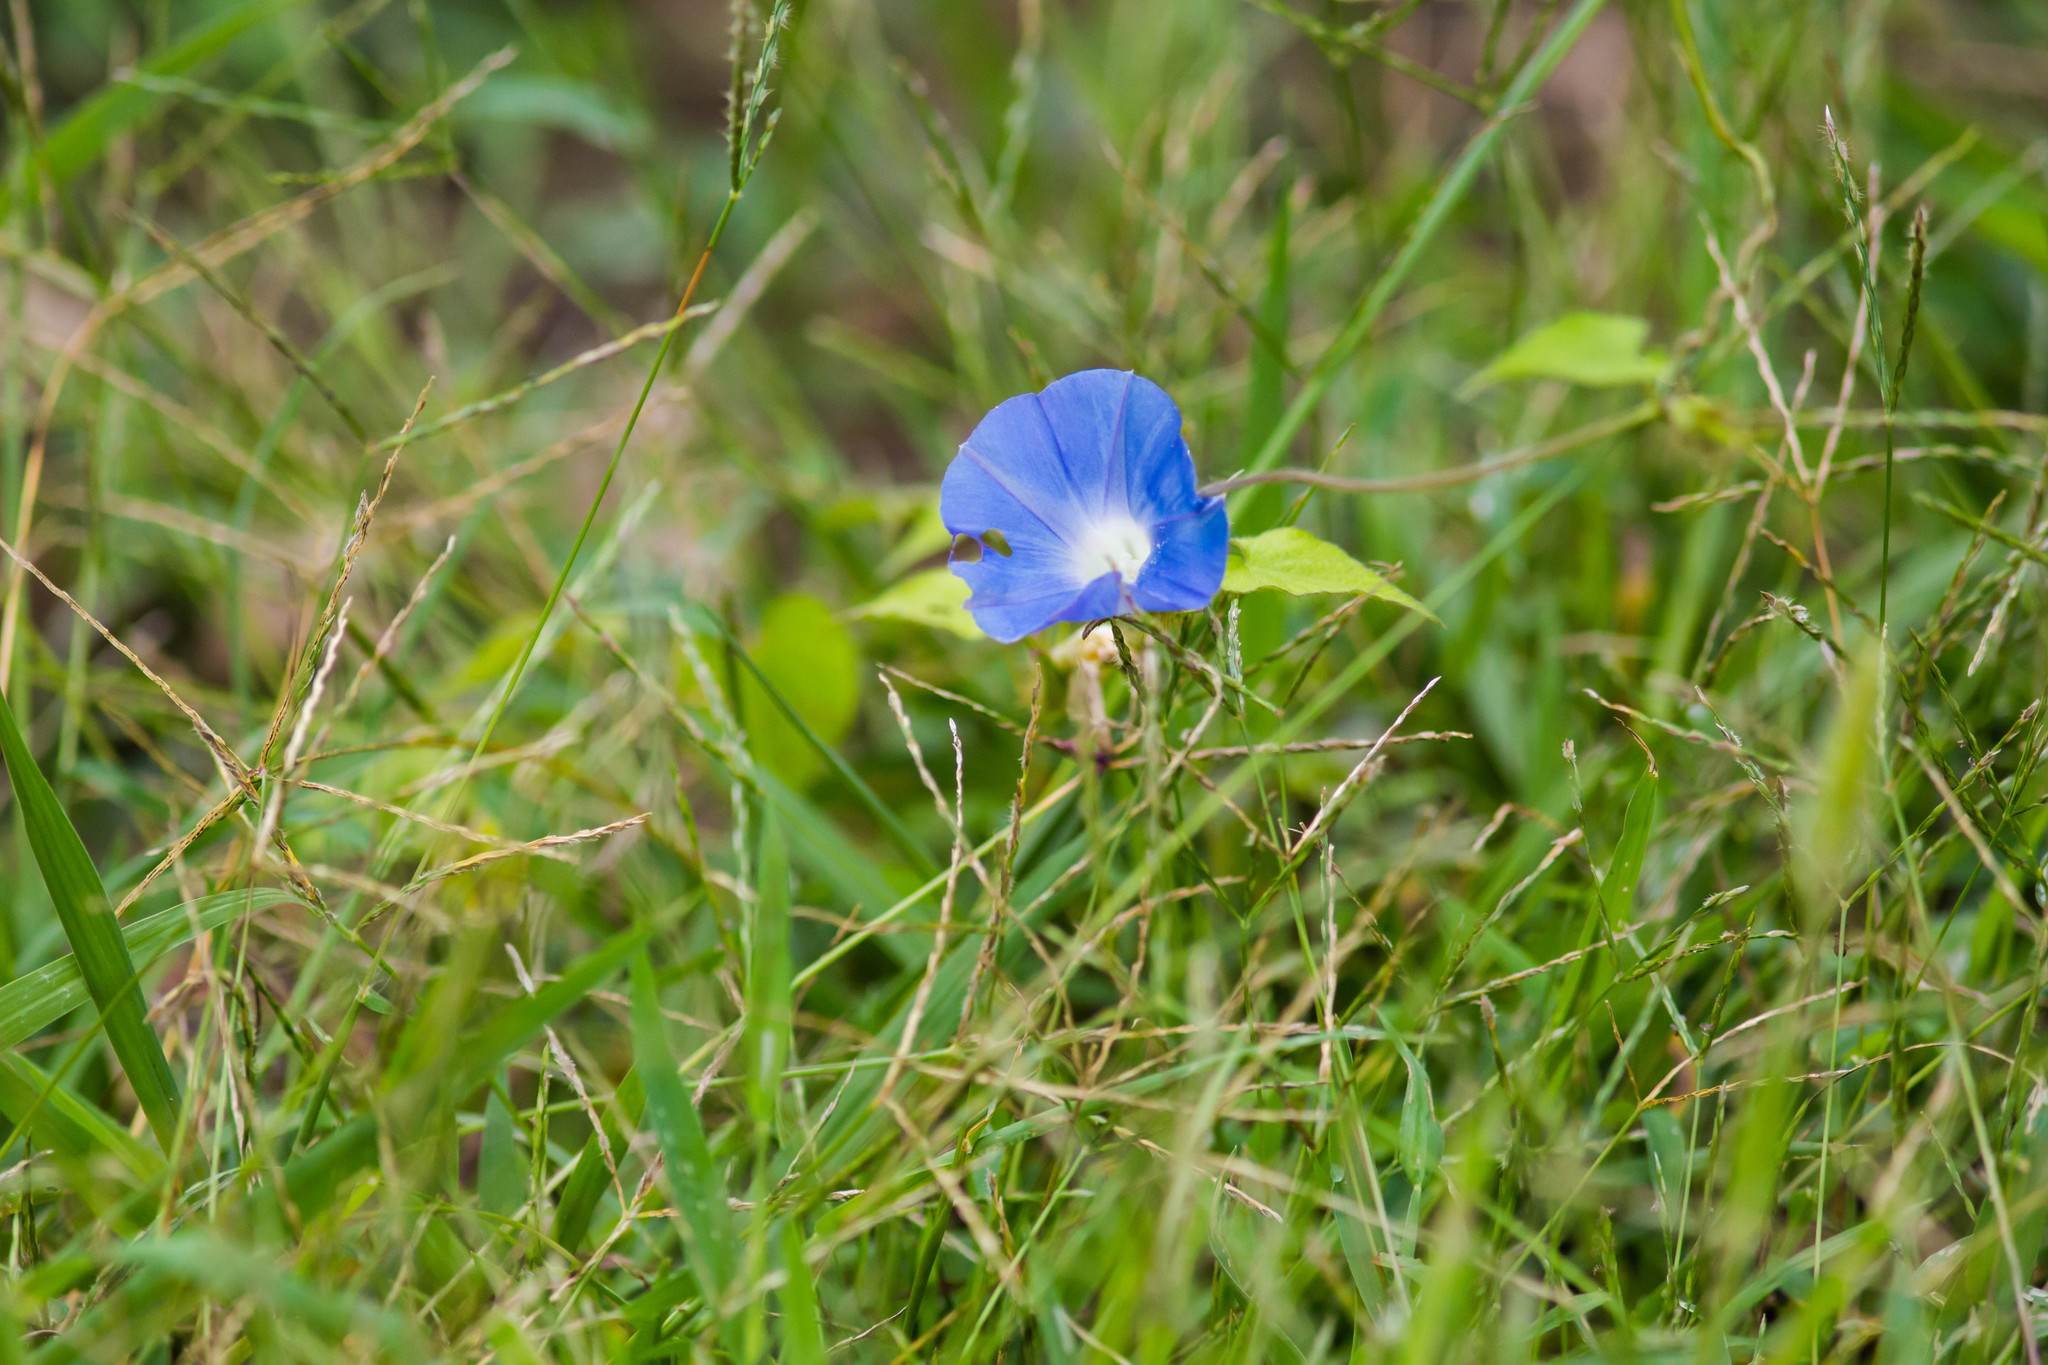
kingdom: Plantae
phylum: Tracheophyta
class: Magnoliopsida
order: Solanales
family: Convolvulaceae
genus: Ipomoea
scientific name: Ipomoea hederacea
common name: Ivy-leaved morning-glory
